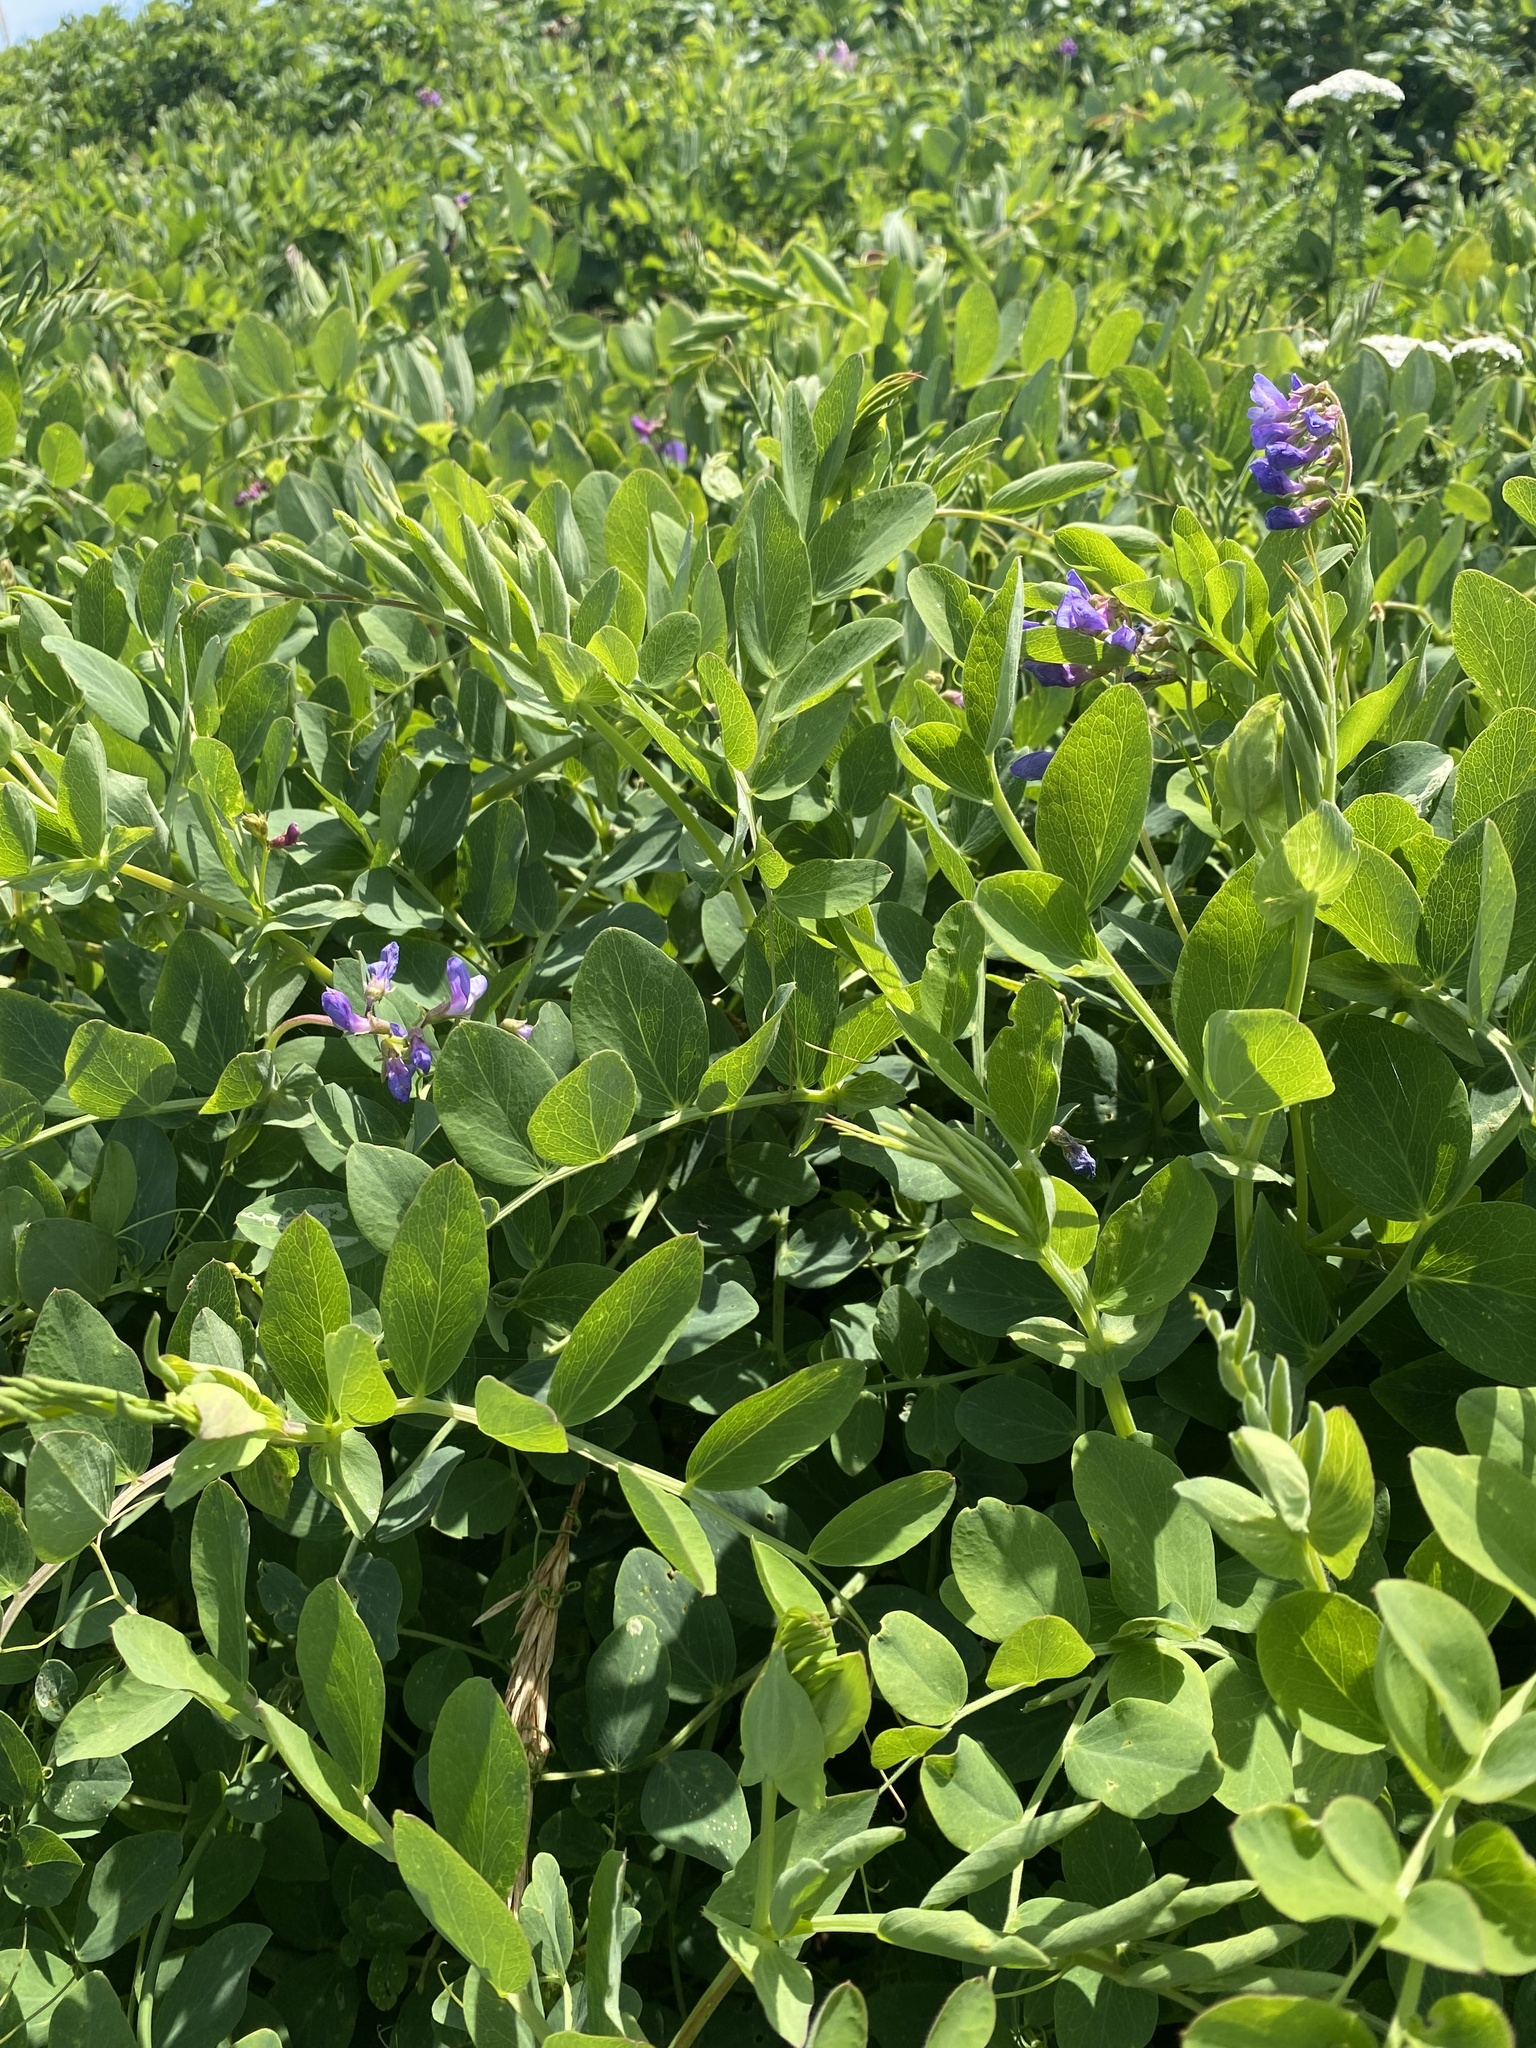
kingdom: Plantae
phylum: Tracheophyta
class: Magnoliopsida
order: Fabales
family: Fabaceae
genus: Lathyrus
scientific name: Lathyrus japonicus
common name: Sea pea
